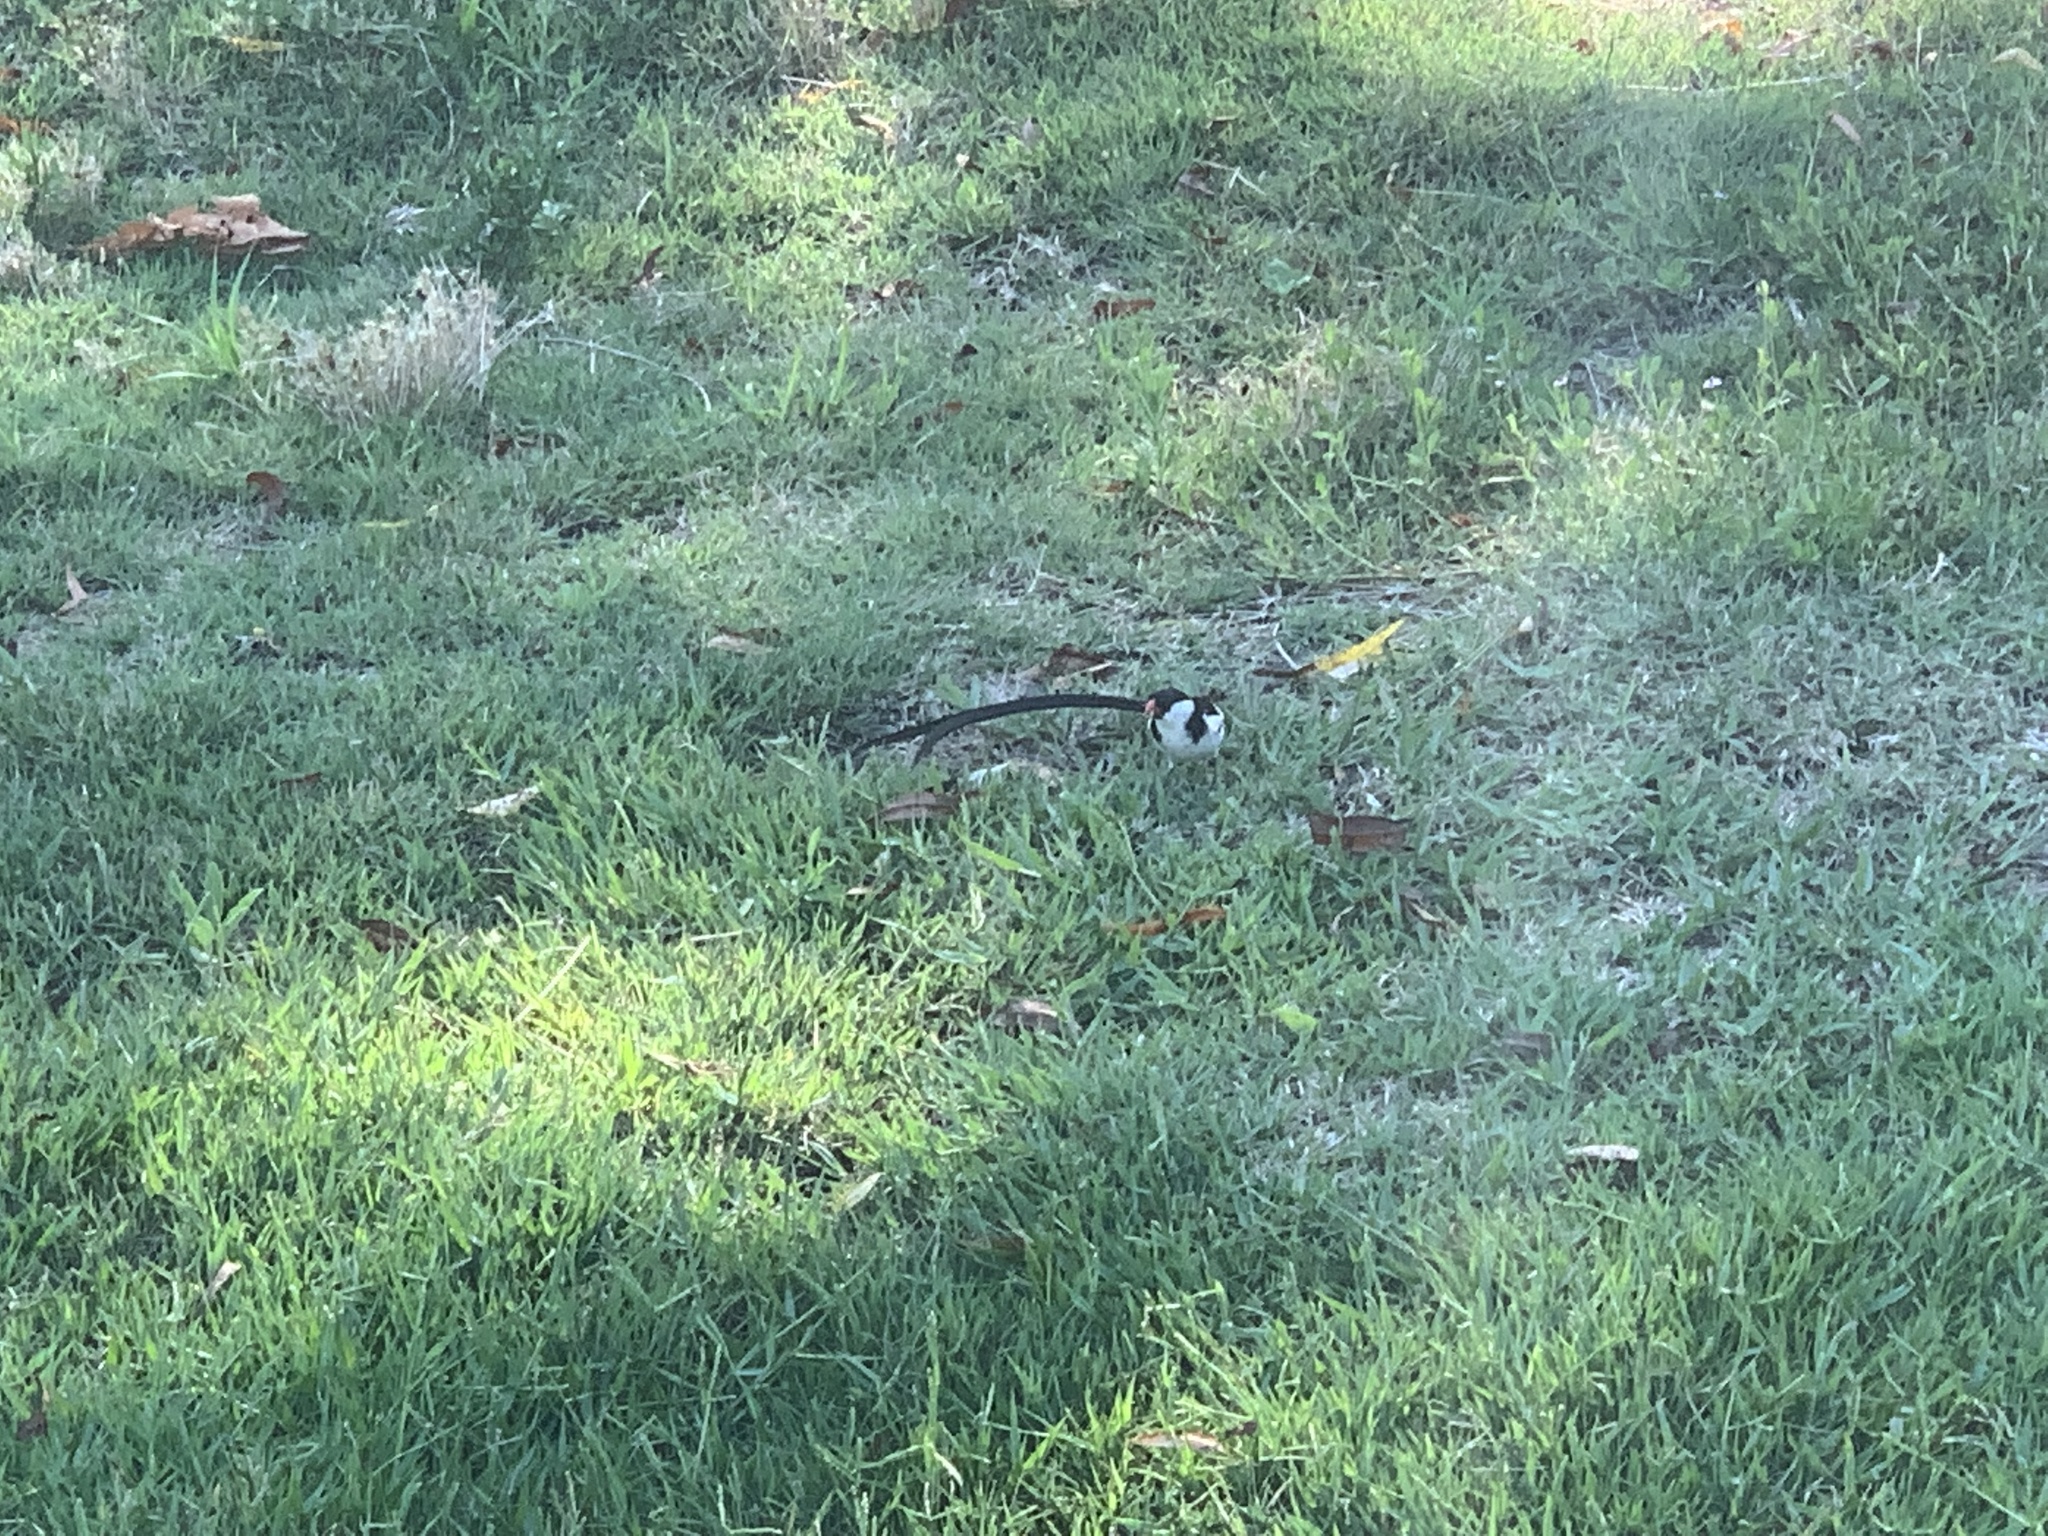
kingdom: Animalia
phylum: Chordata
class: Aves
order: Passeriformes
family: Viduidae
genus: Vidua
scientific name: Vidua macroura
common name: Pin-tailed whydah
